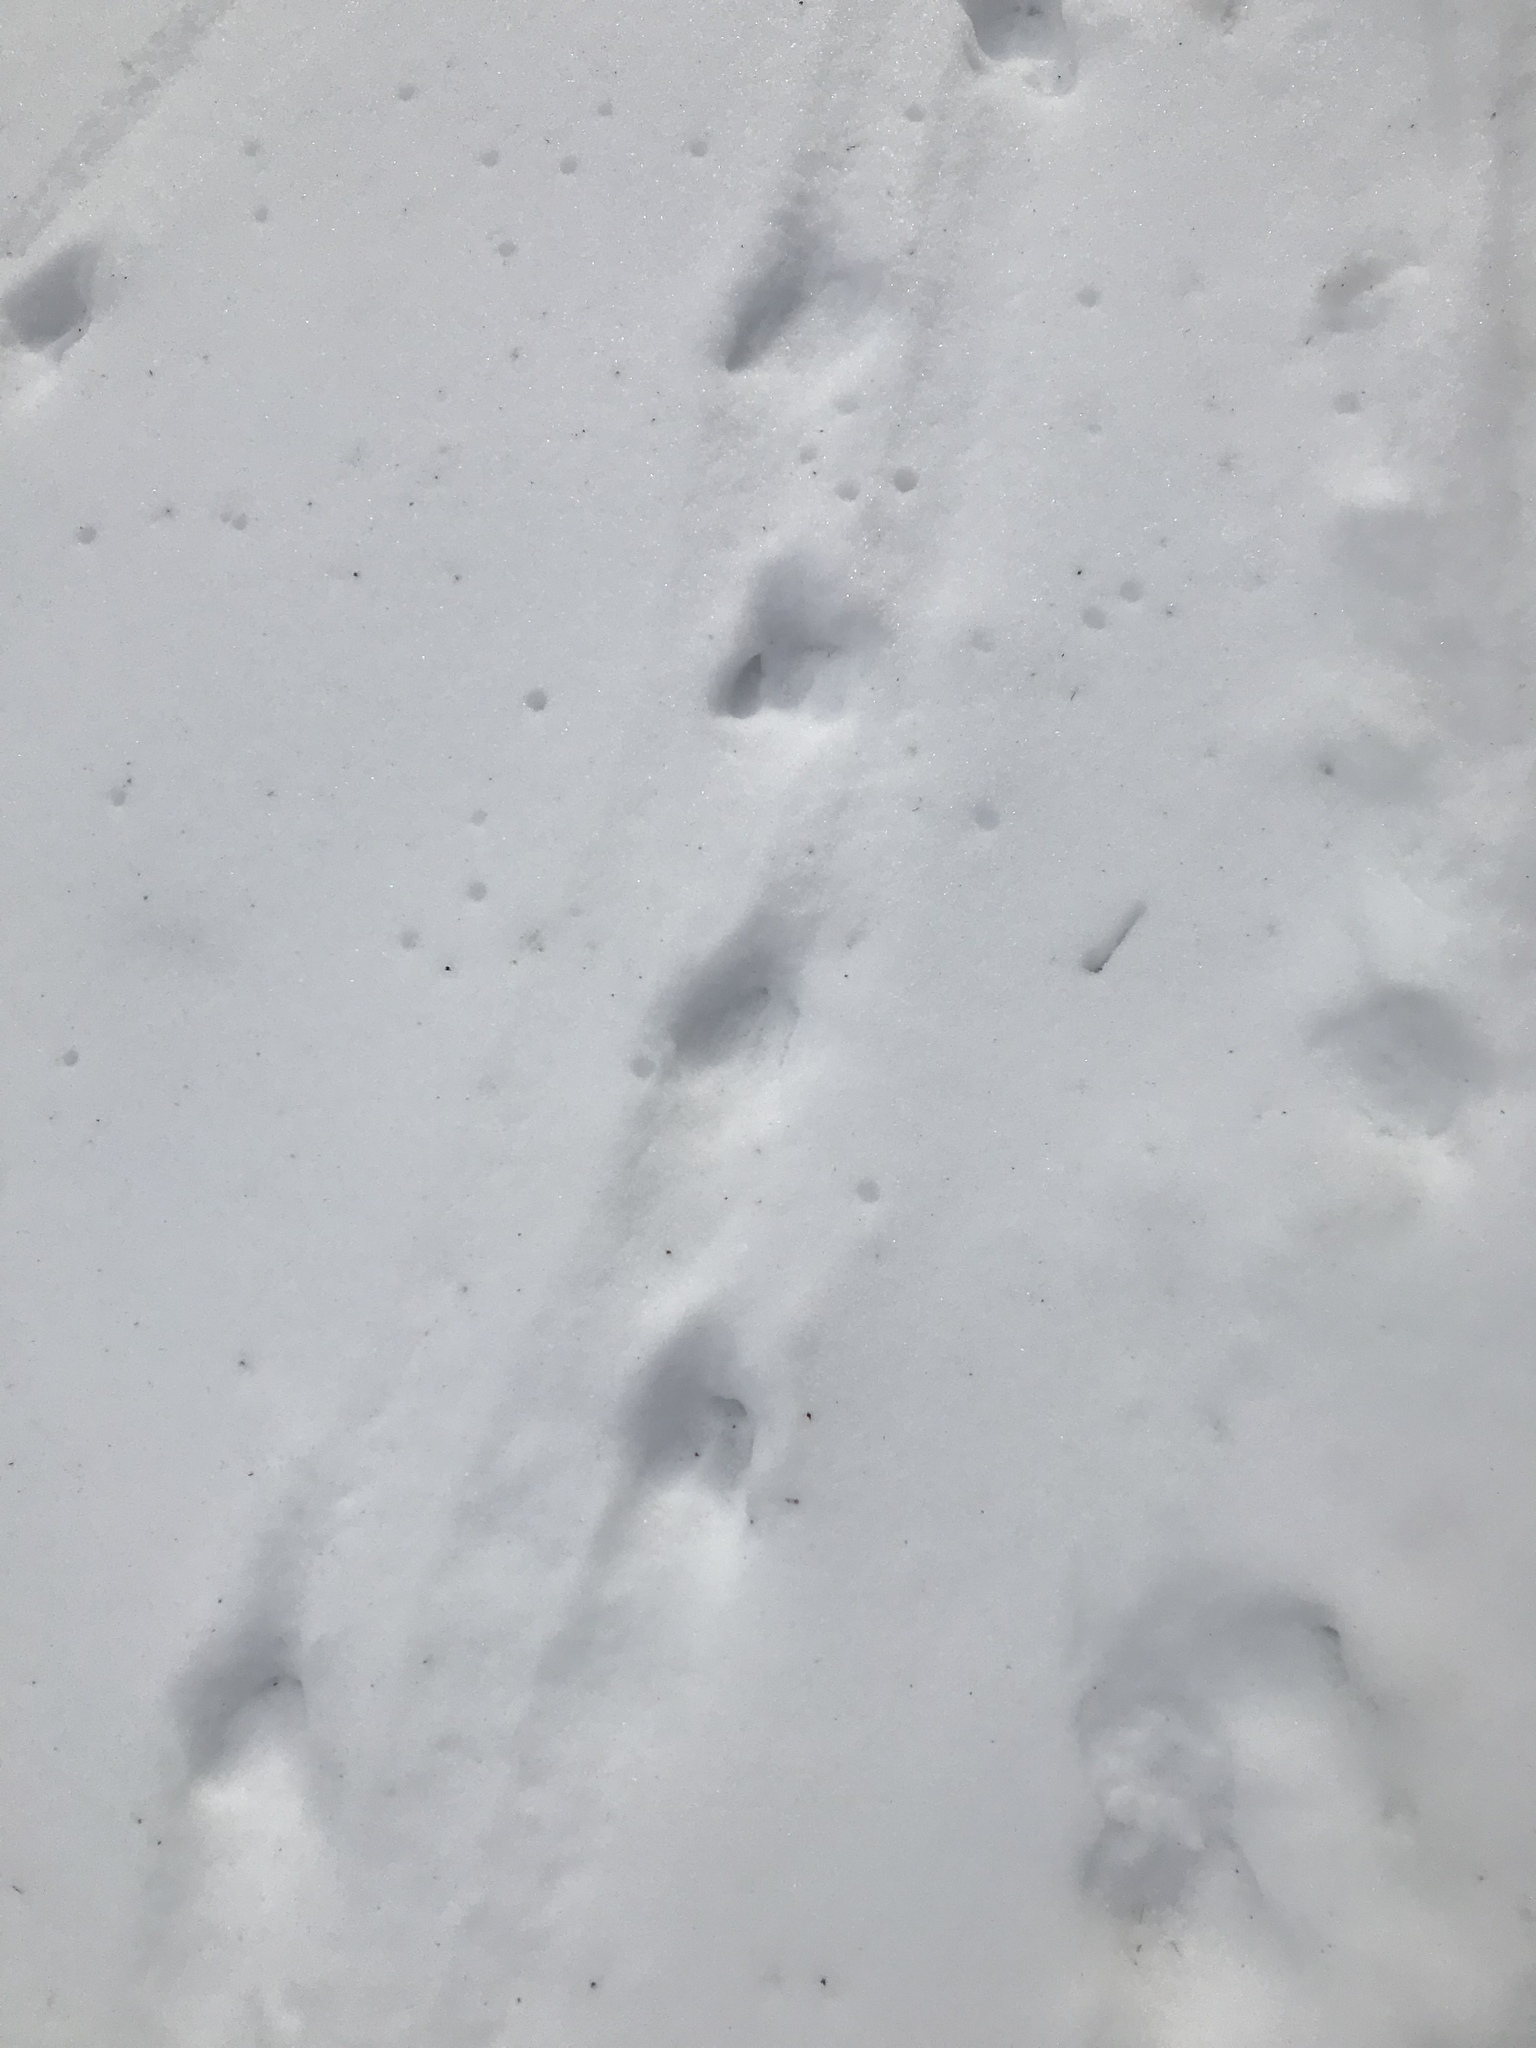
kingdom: Animalia
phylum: Chordata
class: Mammalia
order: Artiodactyla
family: Cervidae
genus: Odocoileus
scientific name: Odocoileus virginianus
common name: White-tailed deer
